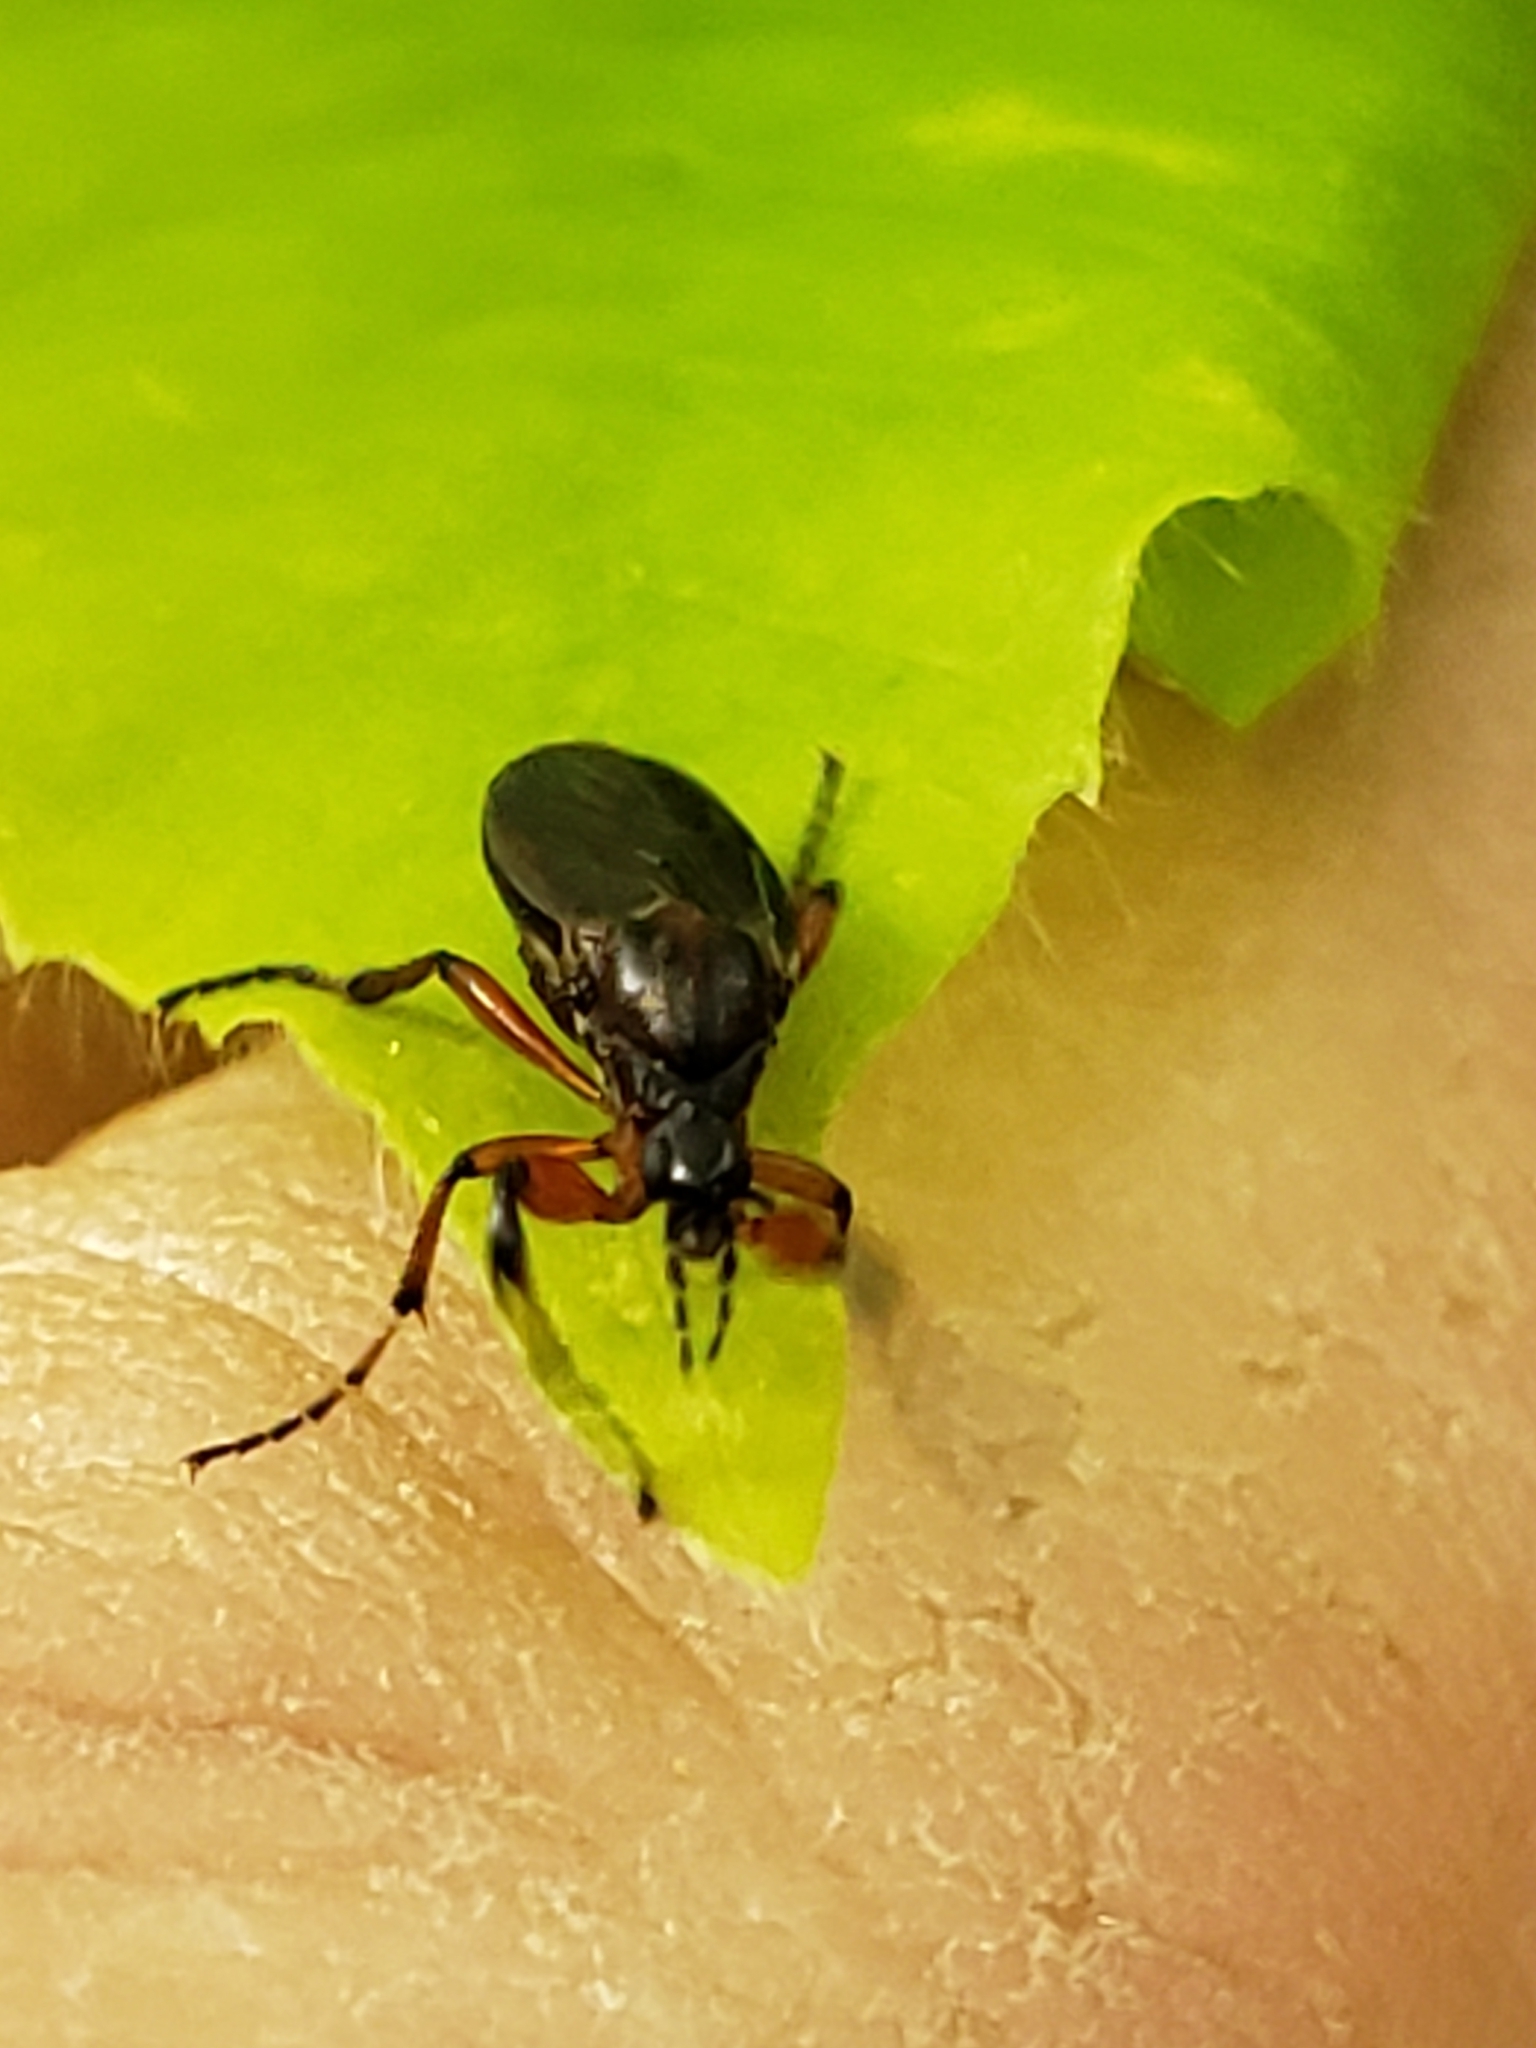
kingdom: Animalia
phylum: Arthropoda
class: Insecta
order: Diptera
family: Bibionidae
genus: Bibio
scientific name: Bibio articulatus
